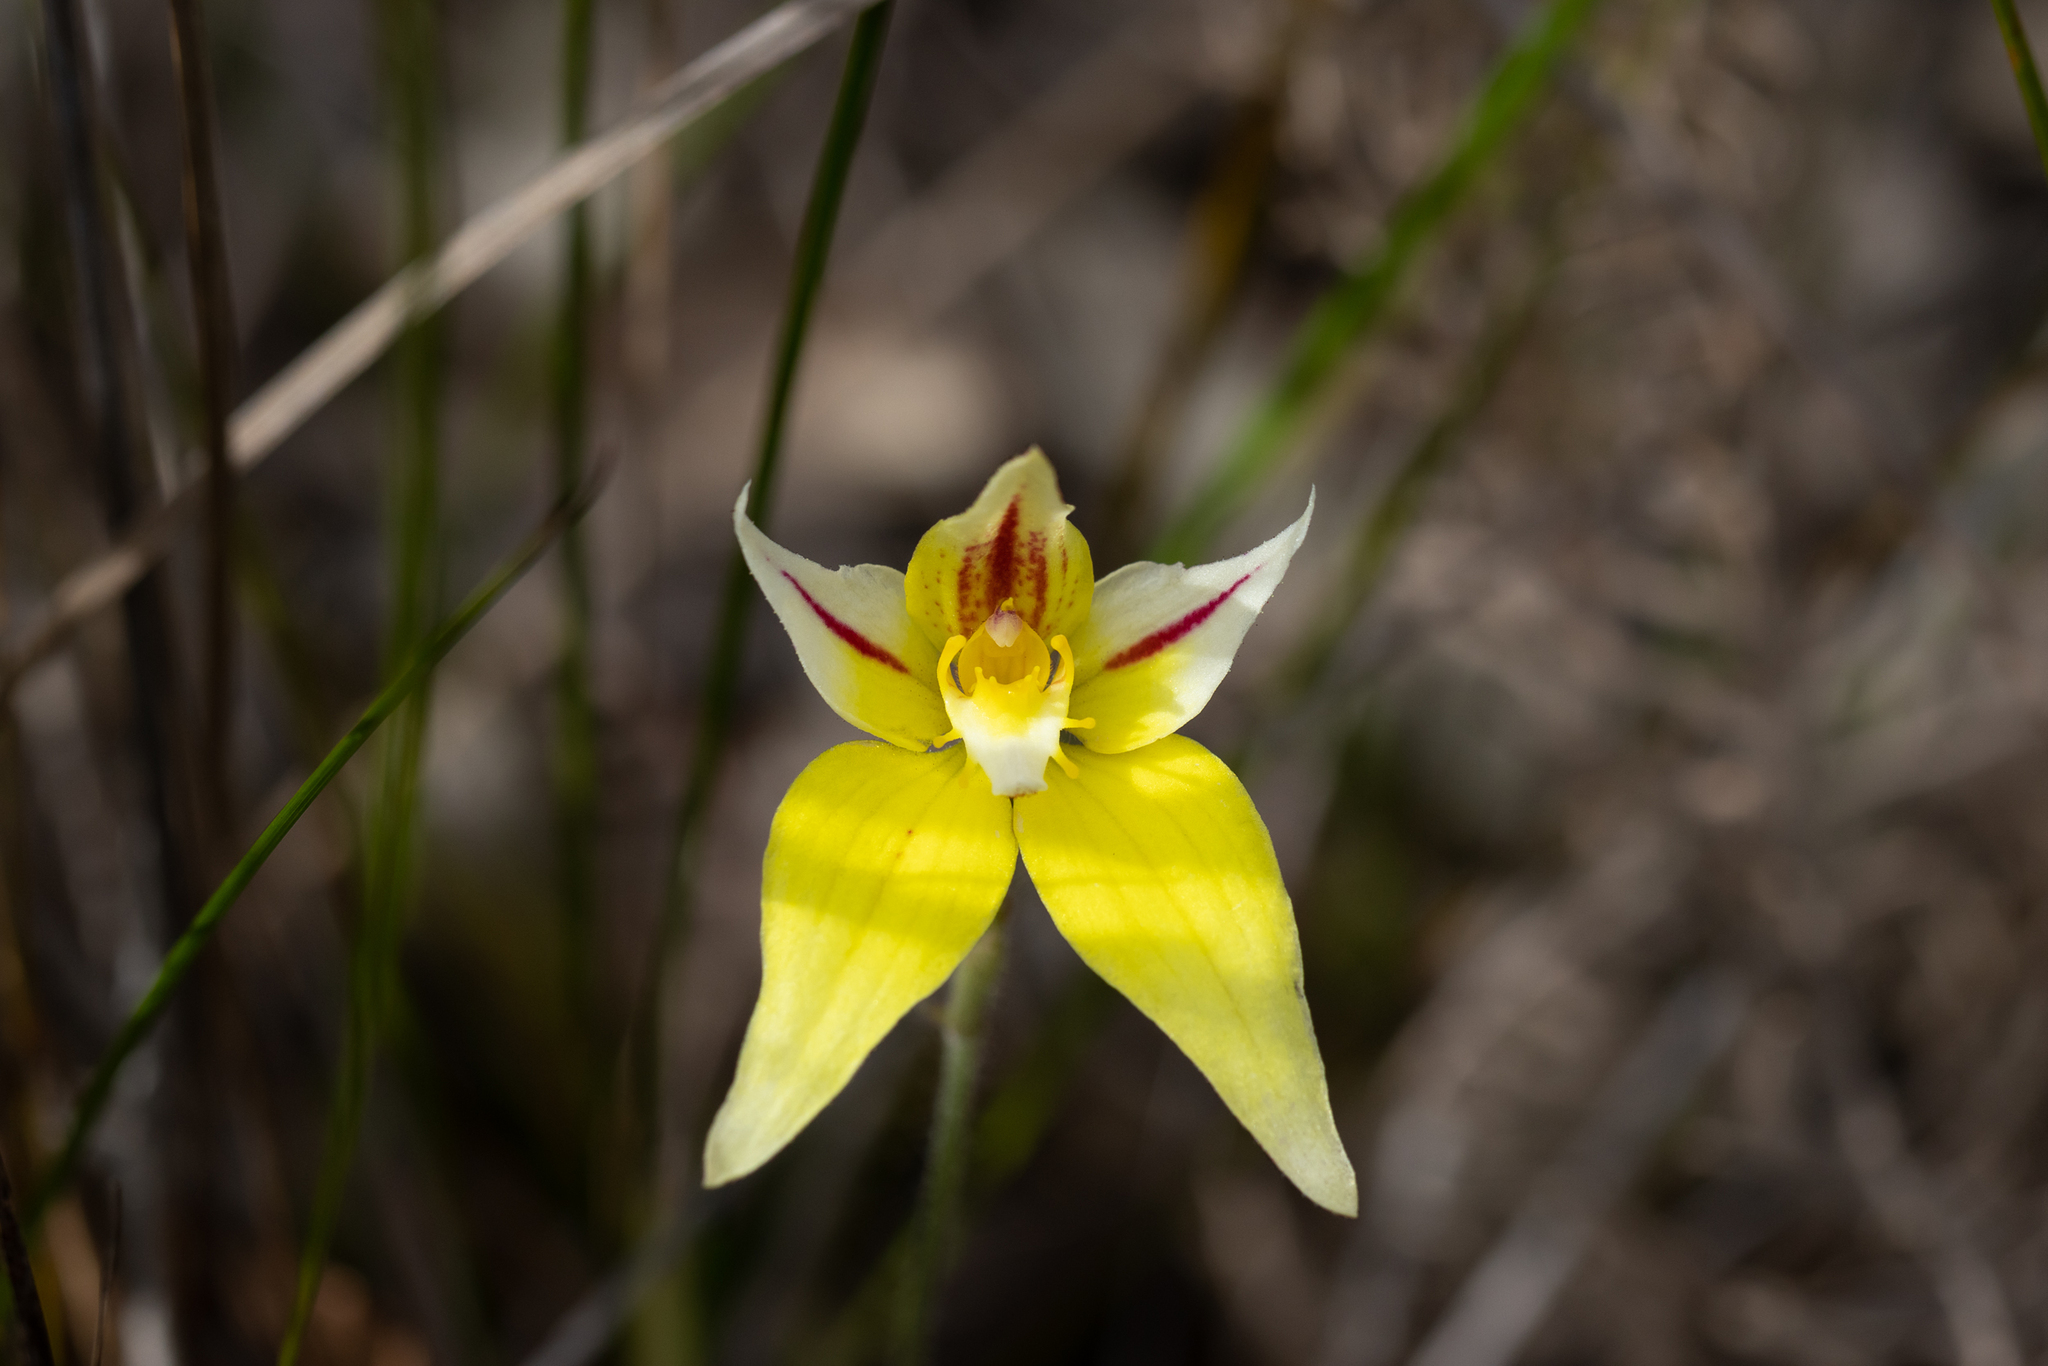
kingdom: Plantae
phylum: Tracheophyta
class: Liliopsida
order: Asparagales
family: Orchidaceae
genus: Caladenia
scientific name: Caladenia flava
